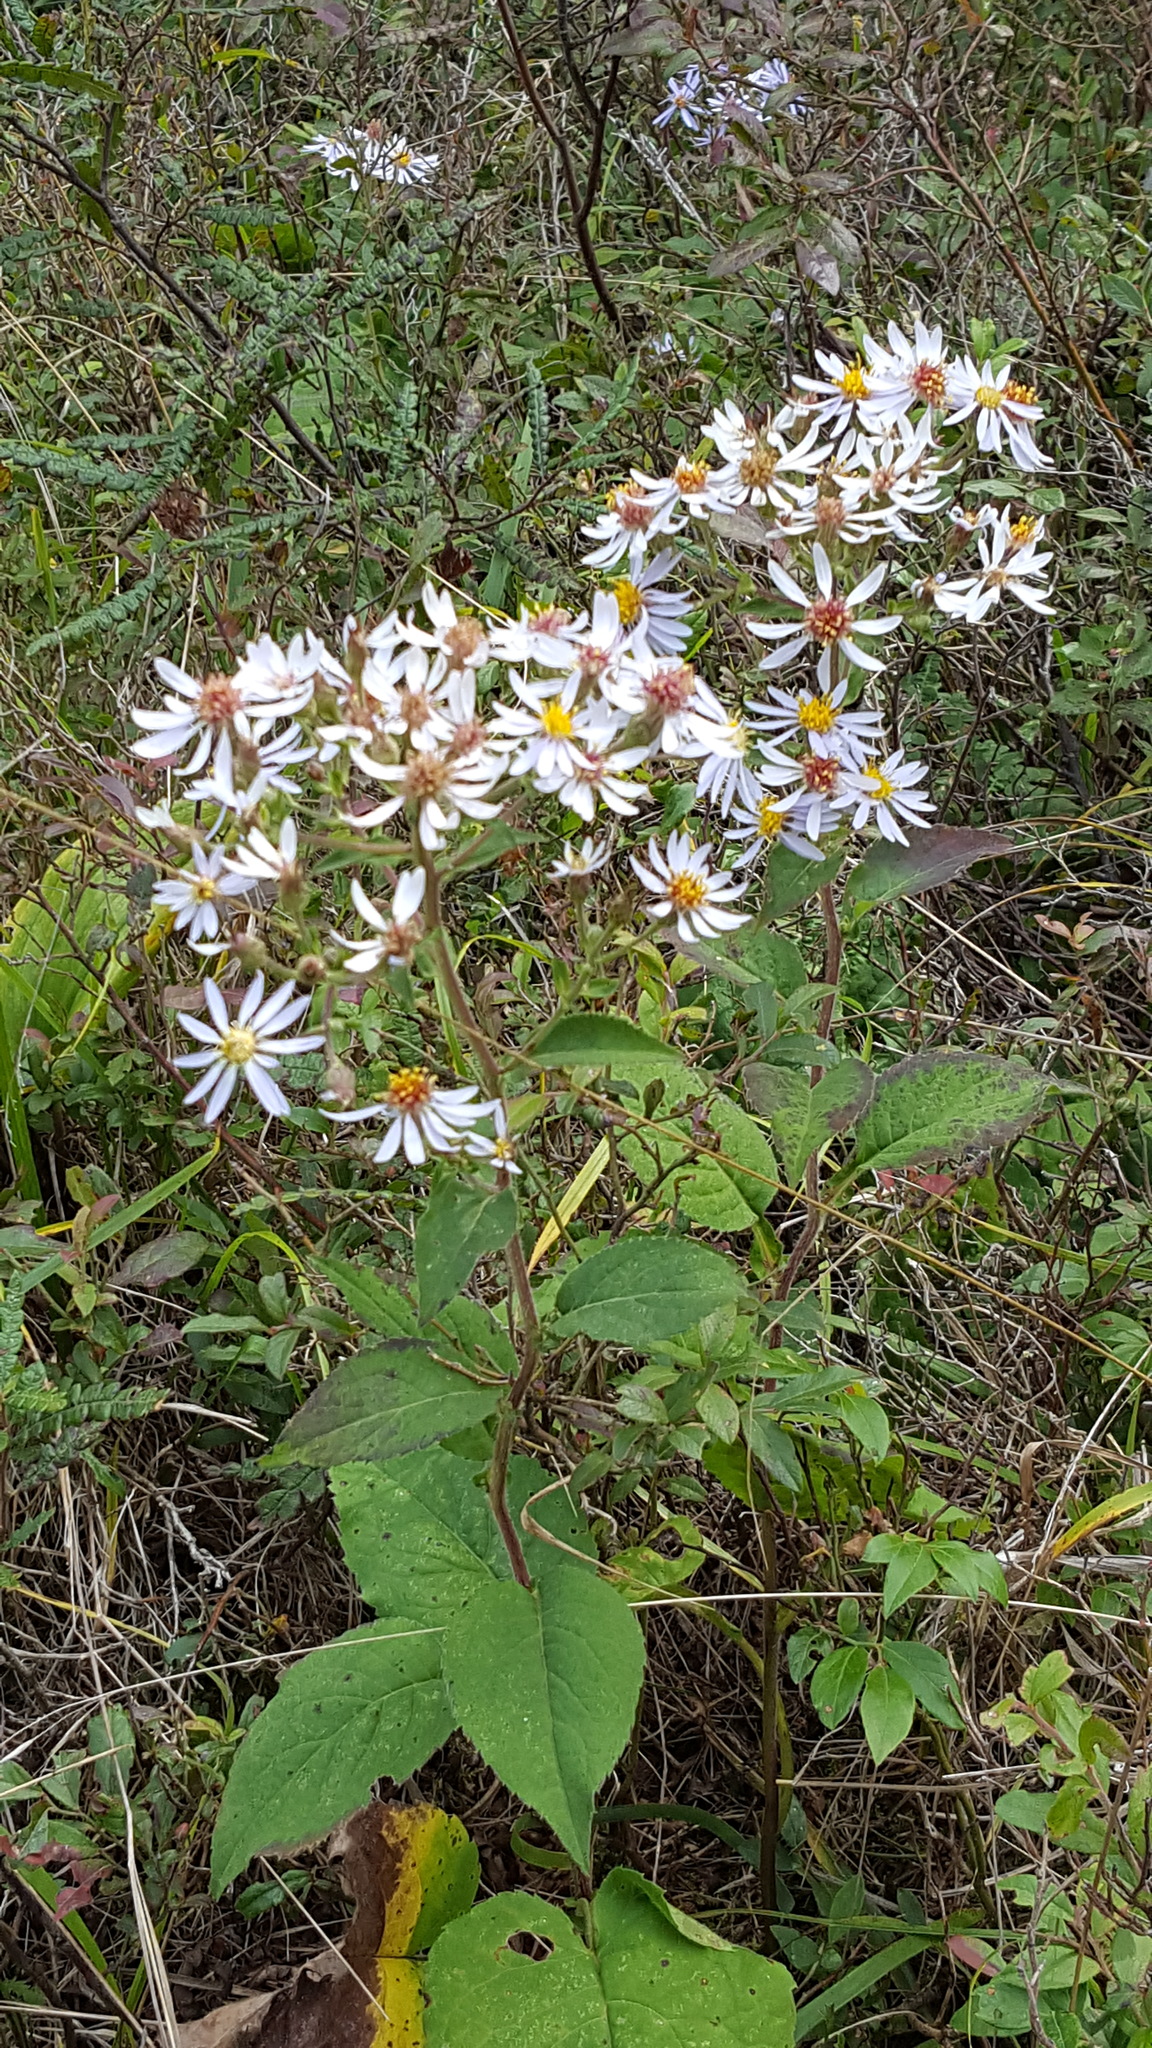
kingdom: Plantae
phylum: Tracheophyta
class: Magnoliopsida
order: Asterales
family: Asteraceae
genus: Eurybia
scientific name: Eurybia macrophylla
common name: Big-leaved aster
